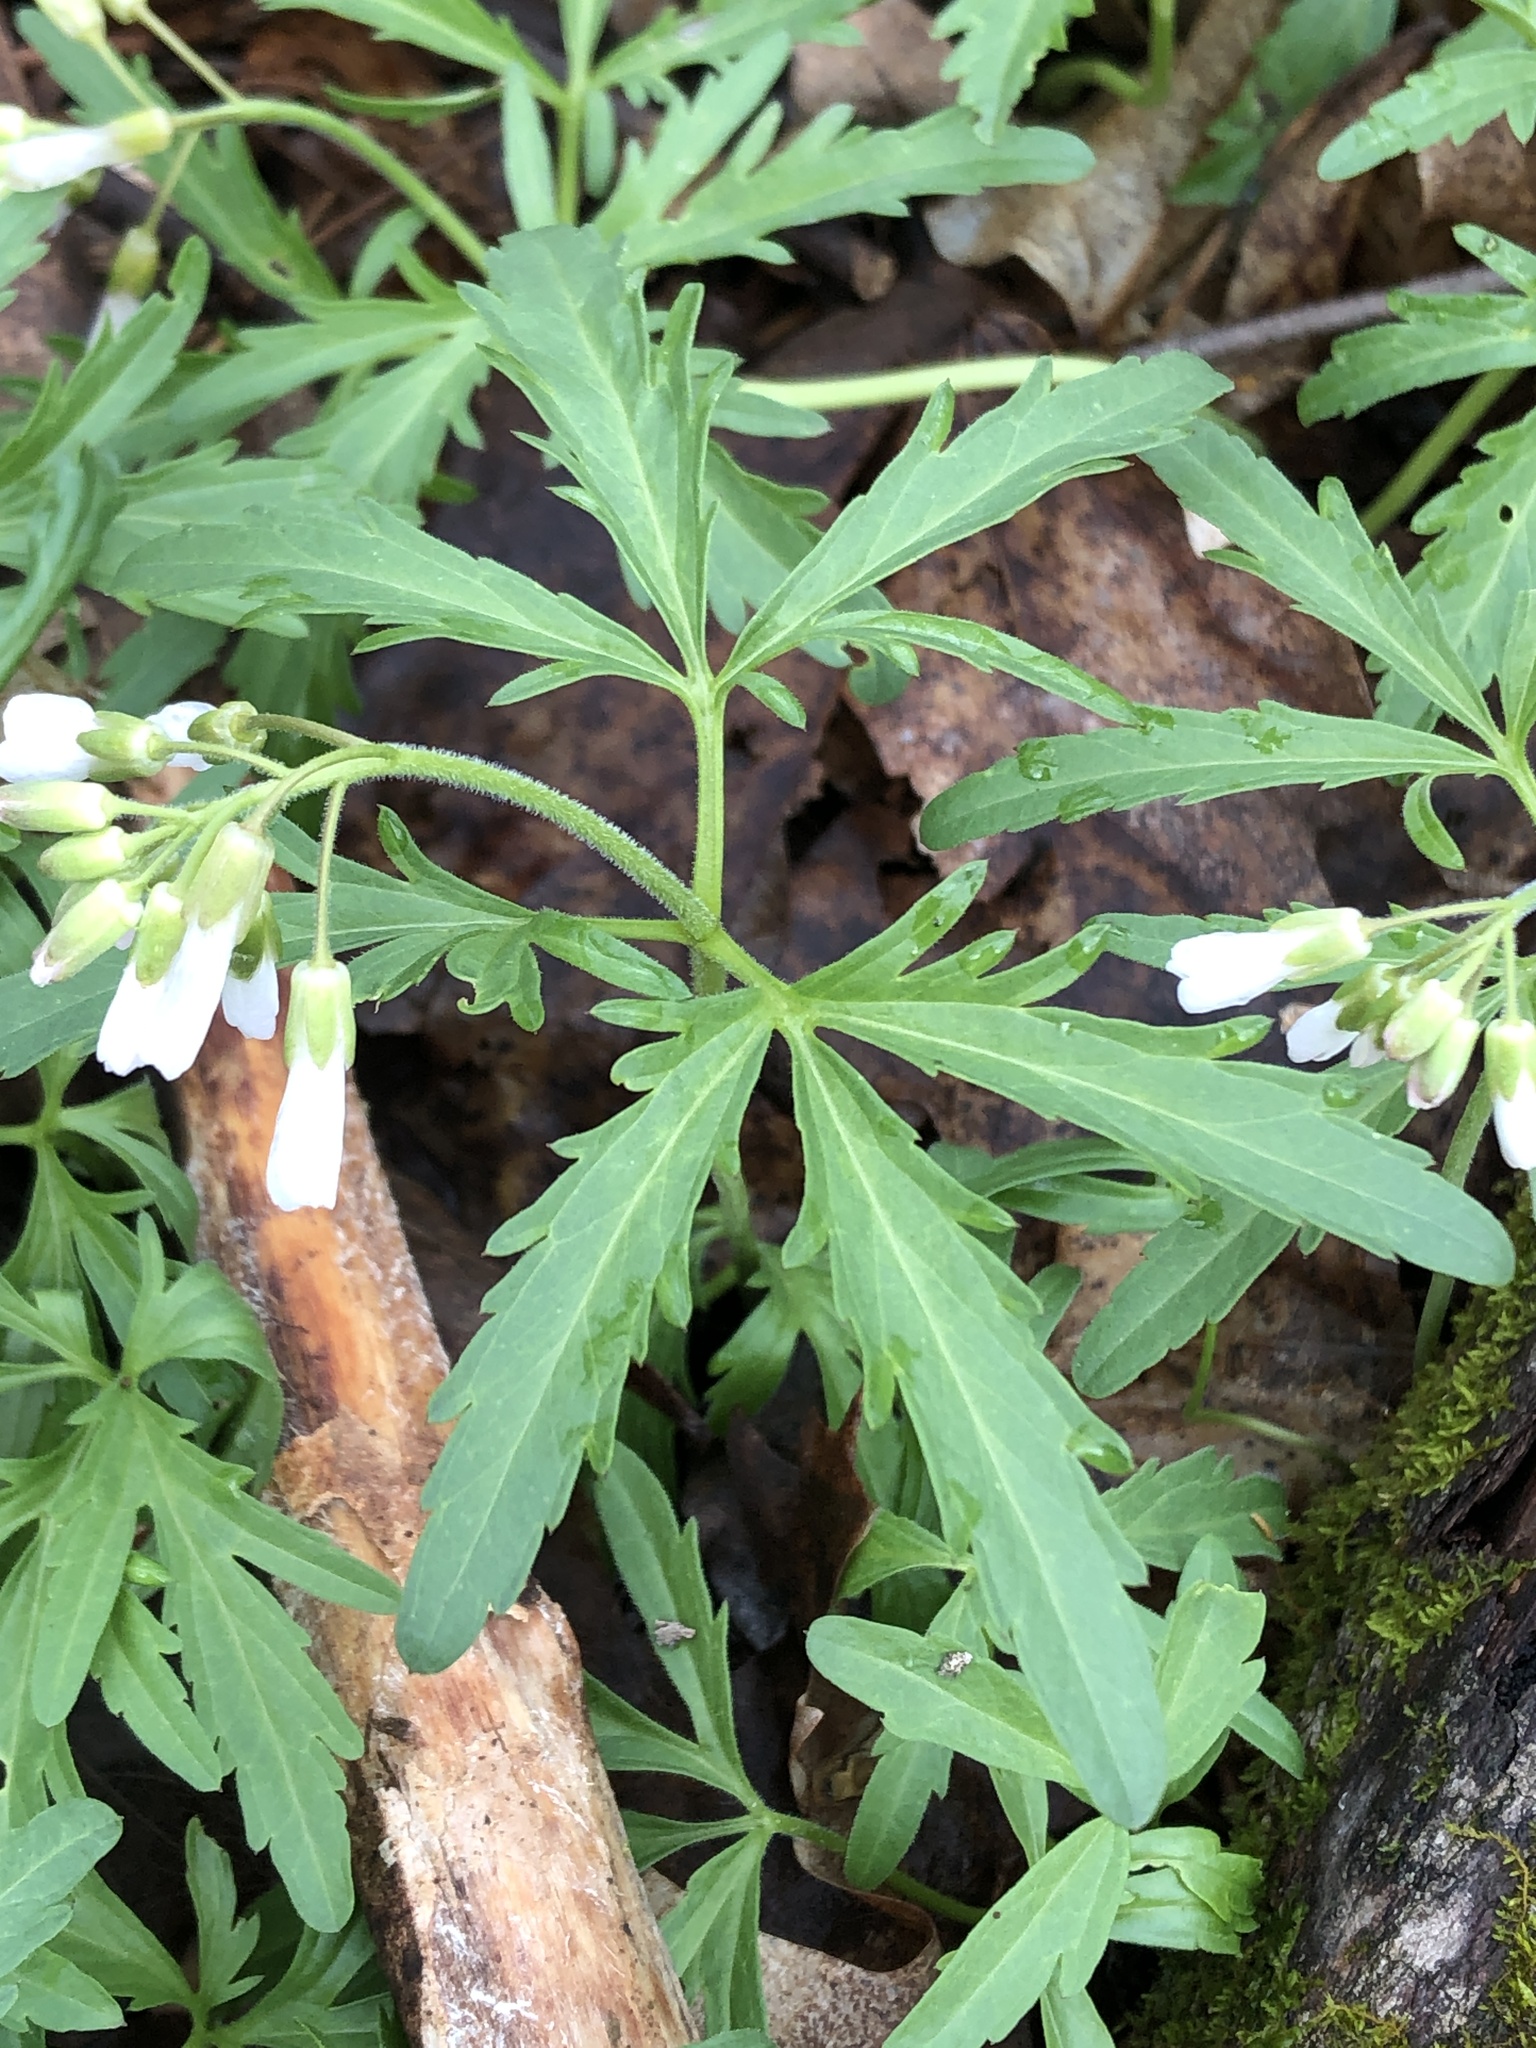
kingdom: Plantae
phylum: Tracheophyta
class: Magnoliopsida
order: Brassicales
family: Brassicaceae
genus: Cardamine
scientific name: Cardamine concatenata
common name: Cut-leaf toothcup
